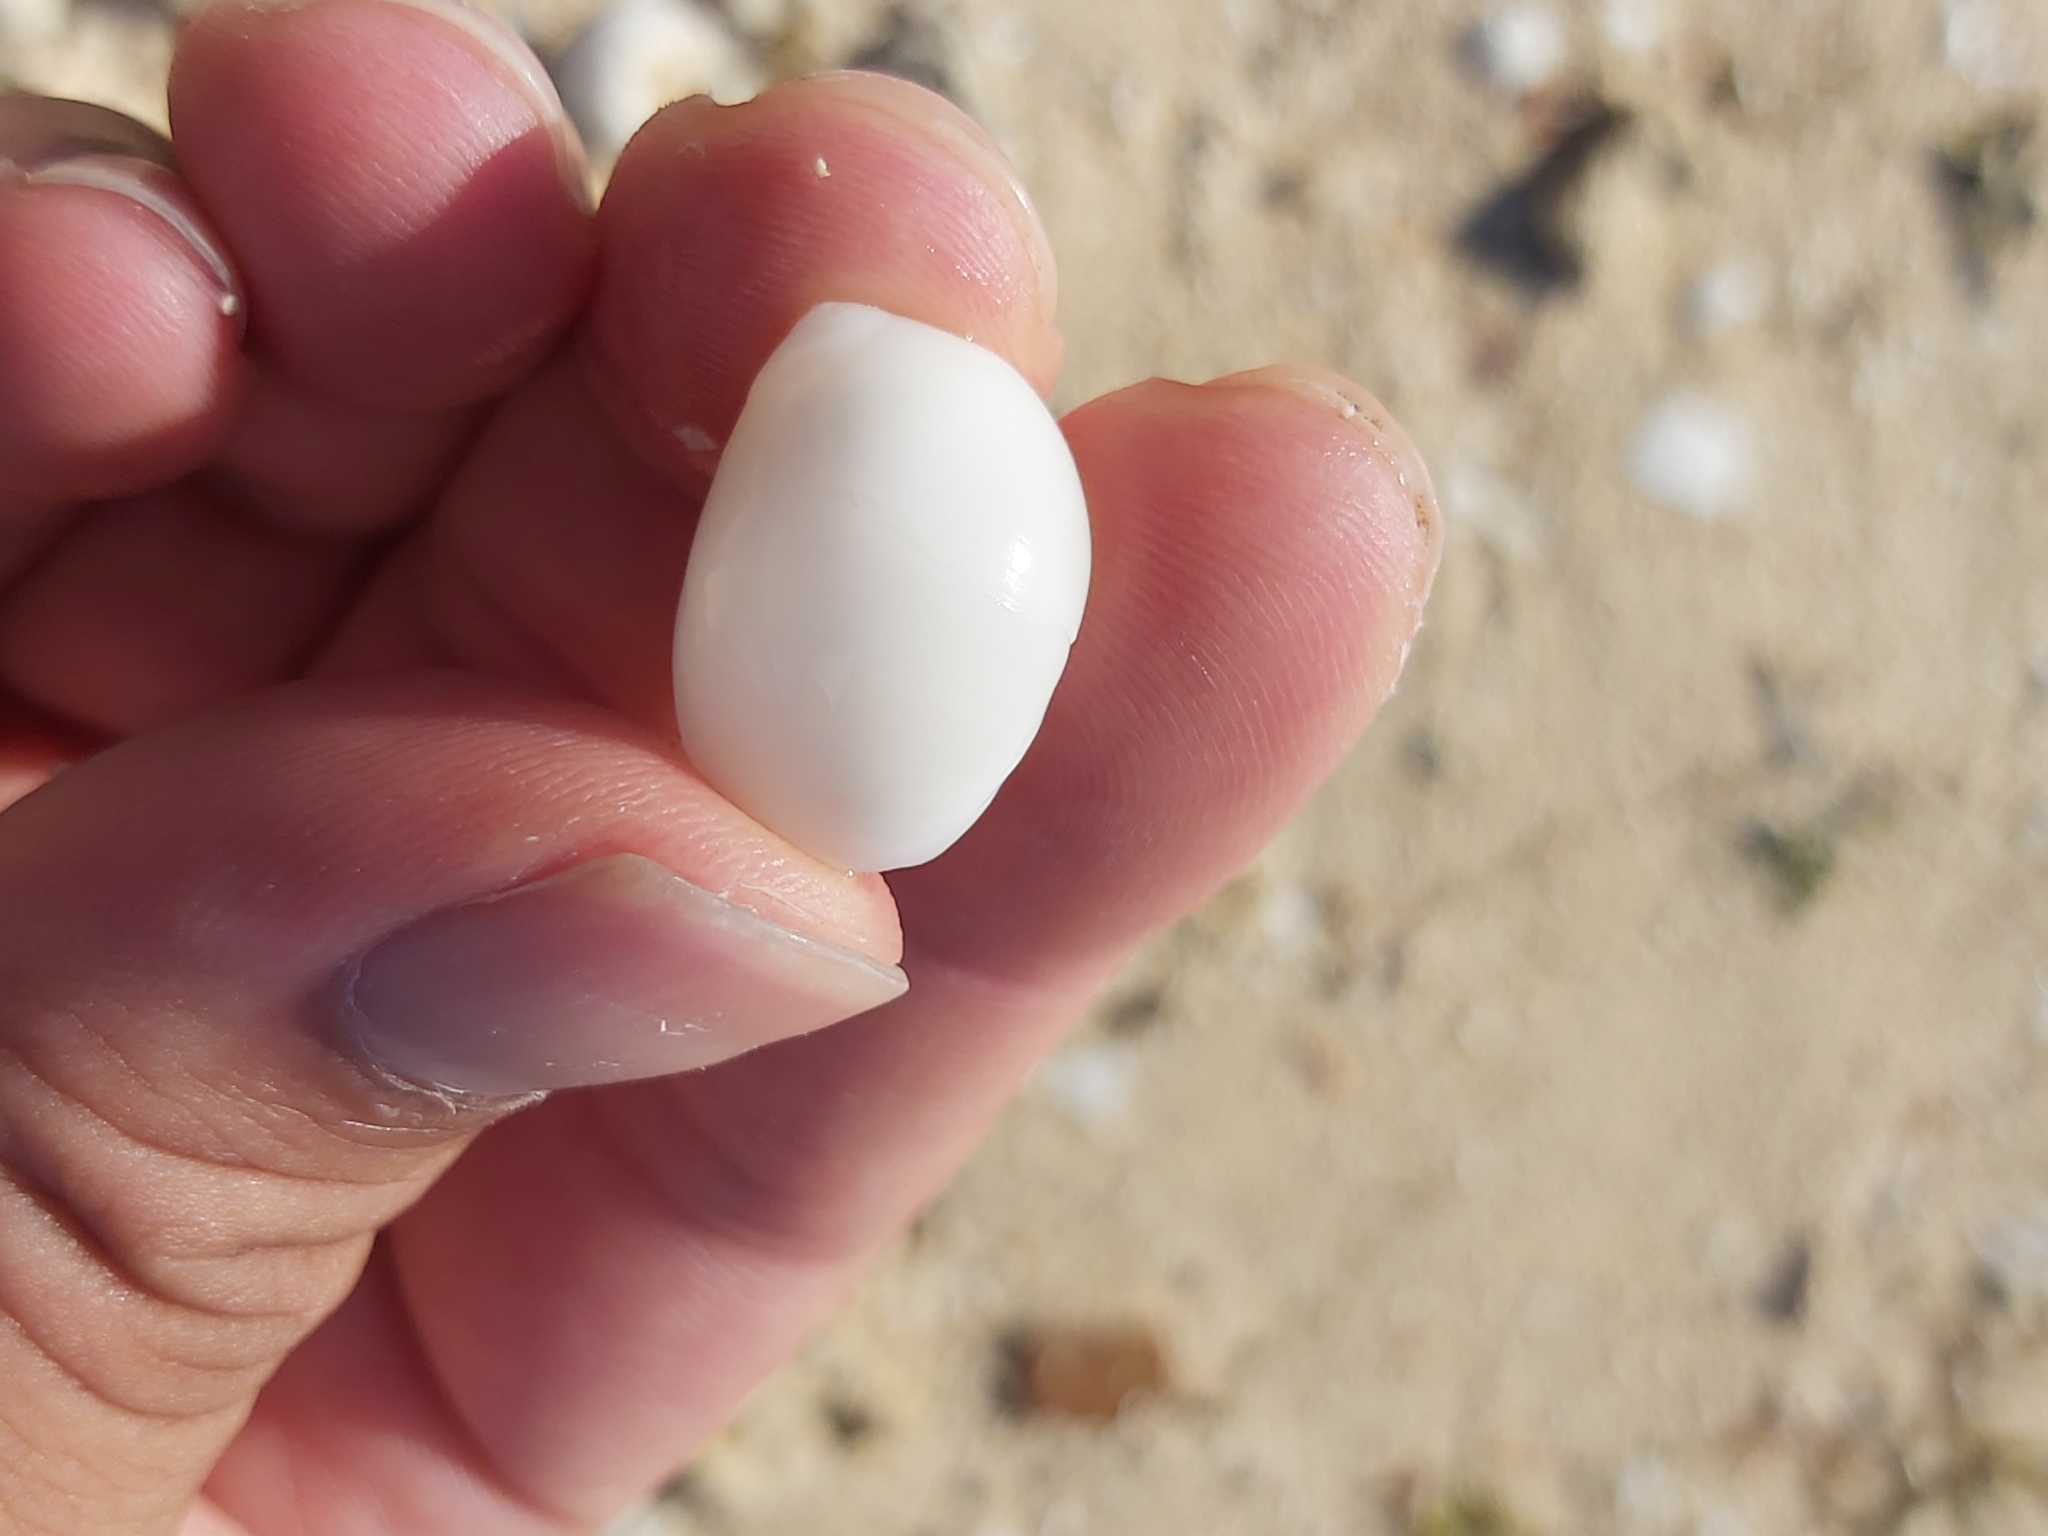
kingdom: Animalia
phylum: Mollusca
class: Gastropoda
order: Littorinimorpha
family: Naticidae
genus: Polinices
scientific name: Polinices mammilla
